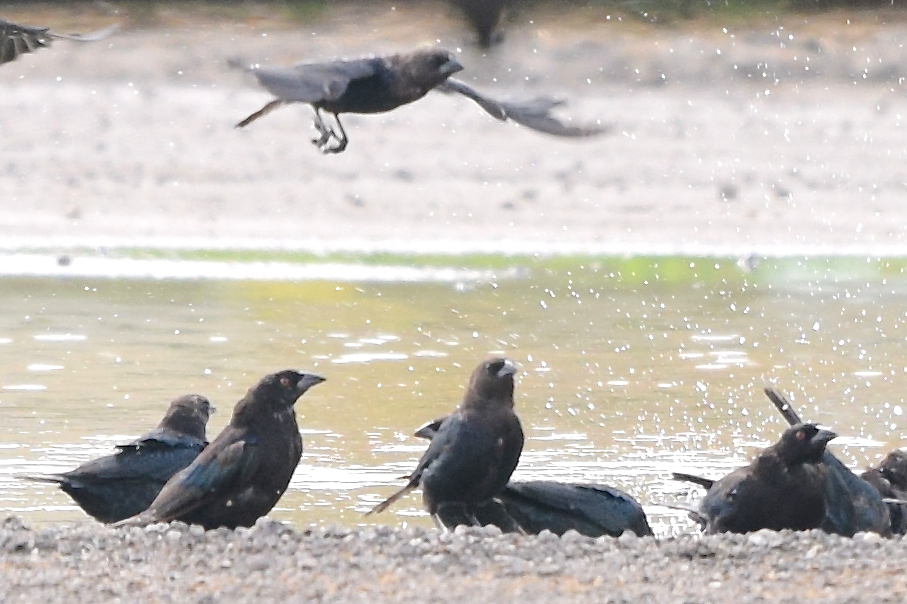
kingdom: Animalia
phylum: Chordata
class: Aves
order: Passeriformes
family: Icteridae
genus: Molothrus
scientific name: Molothrus aeneus
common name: Bronzed cowbird
